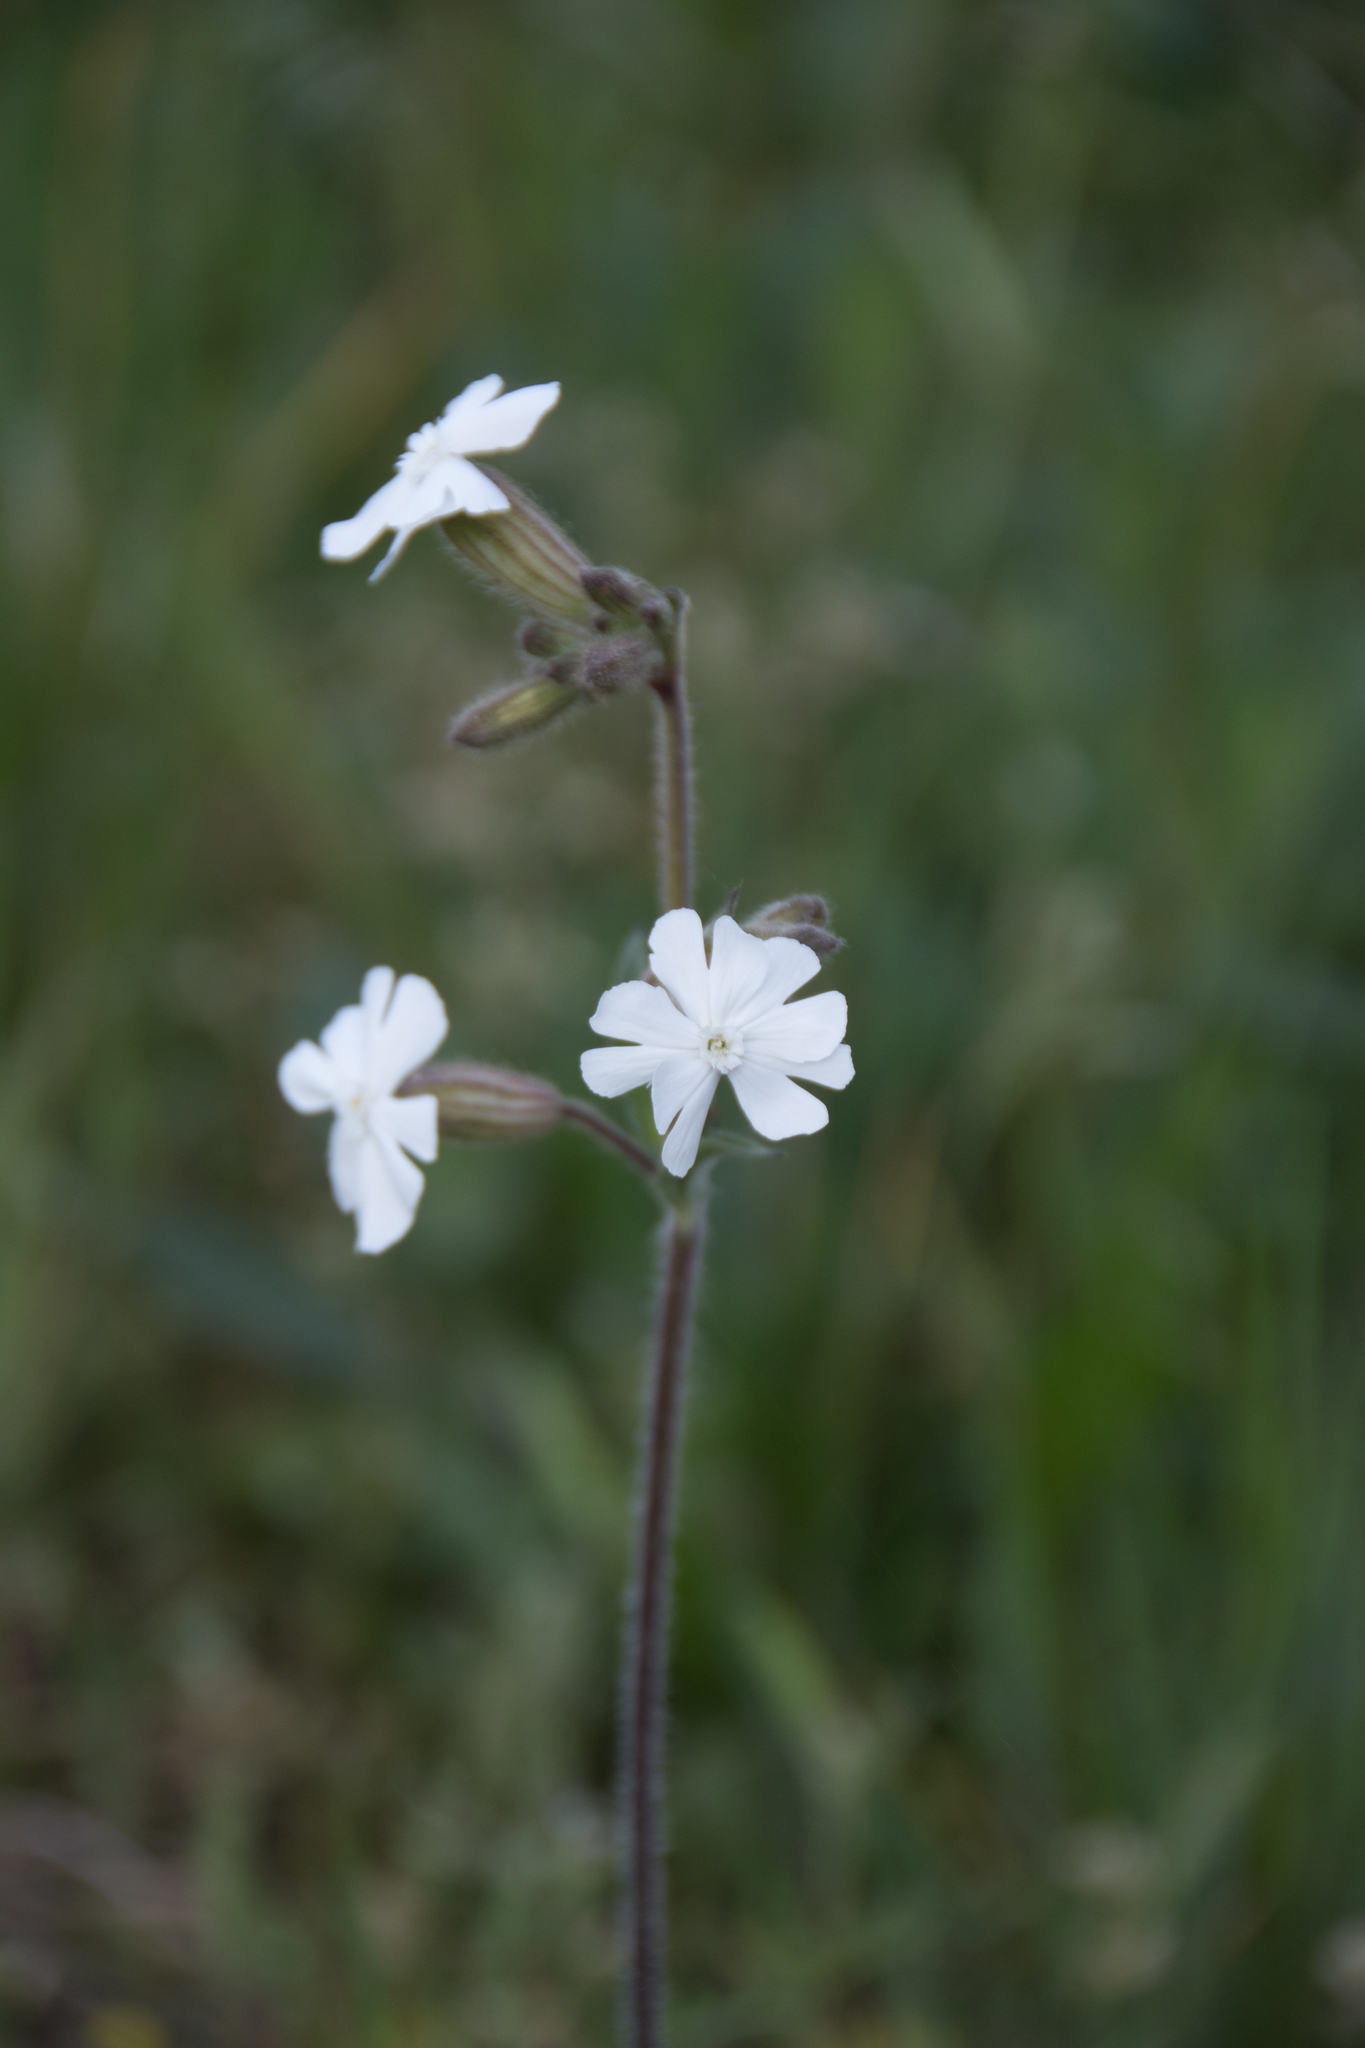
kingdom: Plantae
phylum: Tracheophyta
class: Magnoliopsida
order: Caryophyllales
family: Caryophyllaceae
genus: Silene
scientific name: Silene latifolia
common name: White campion
